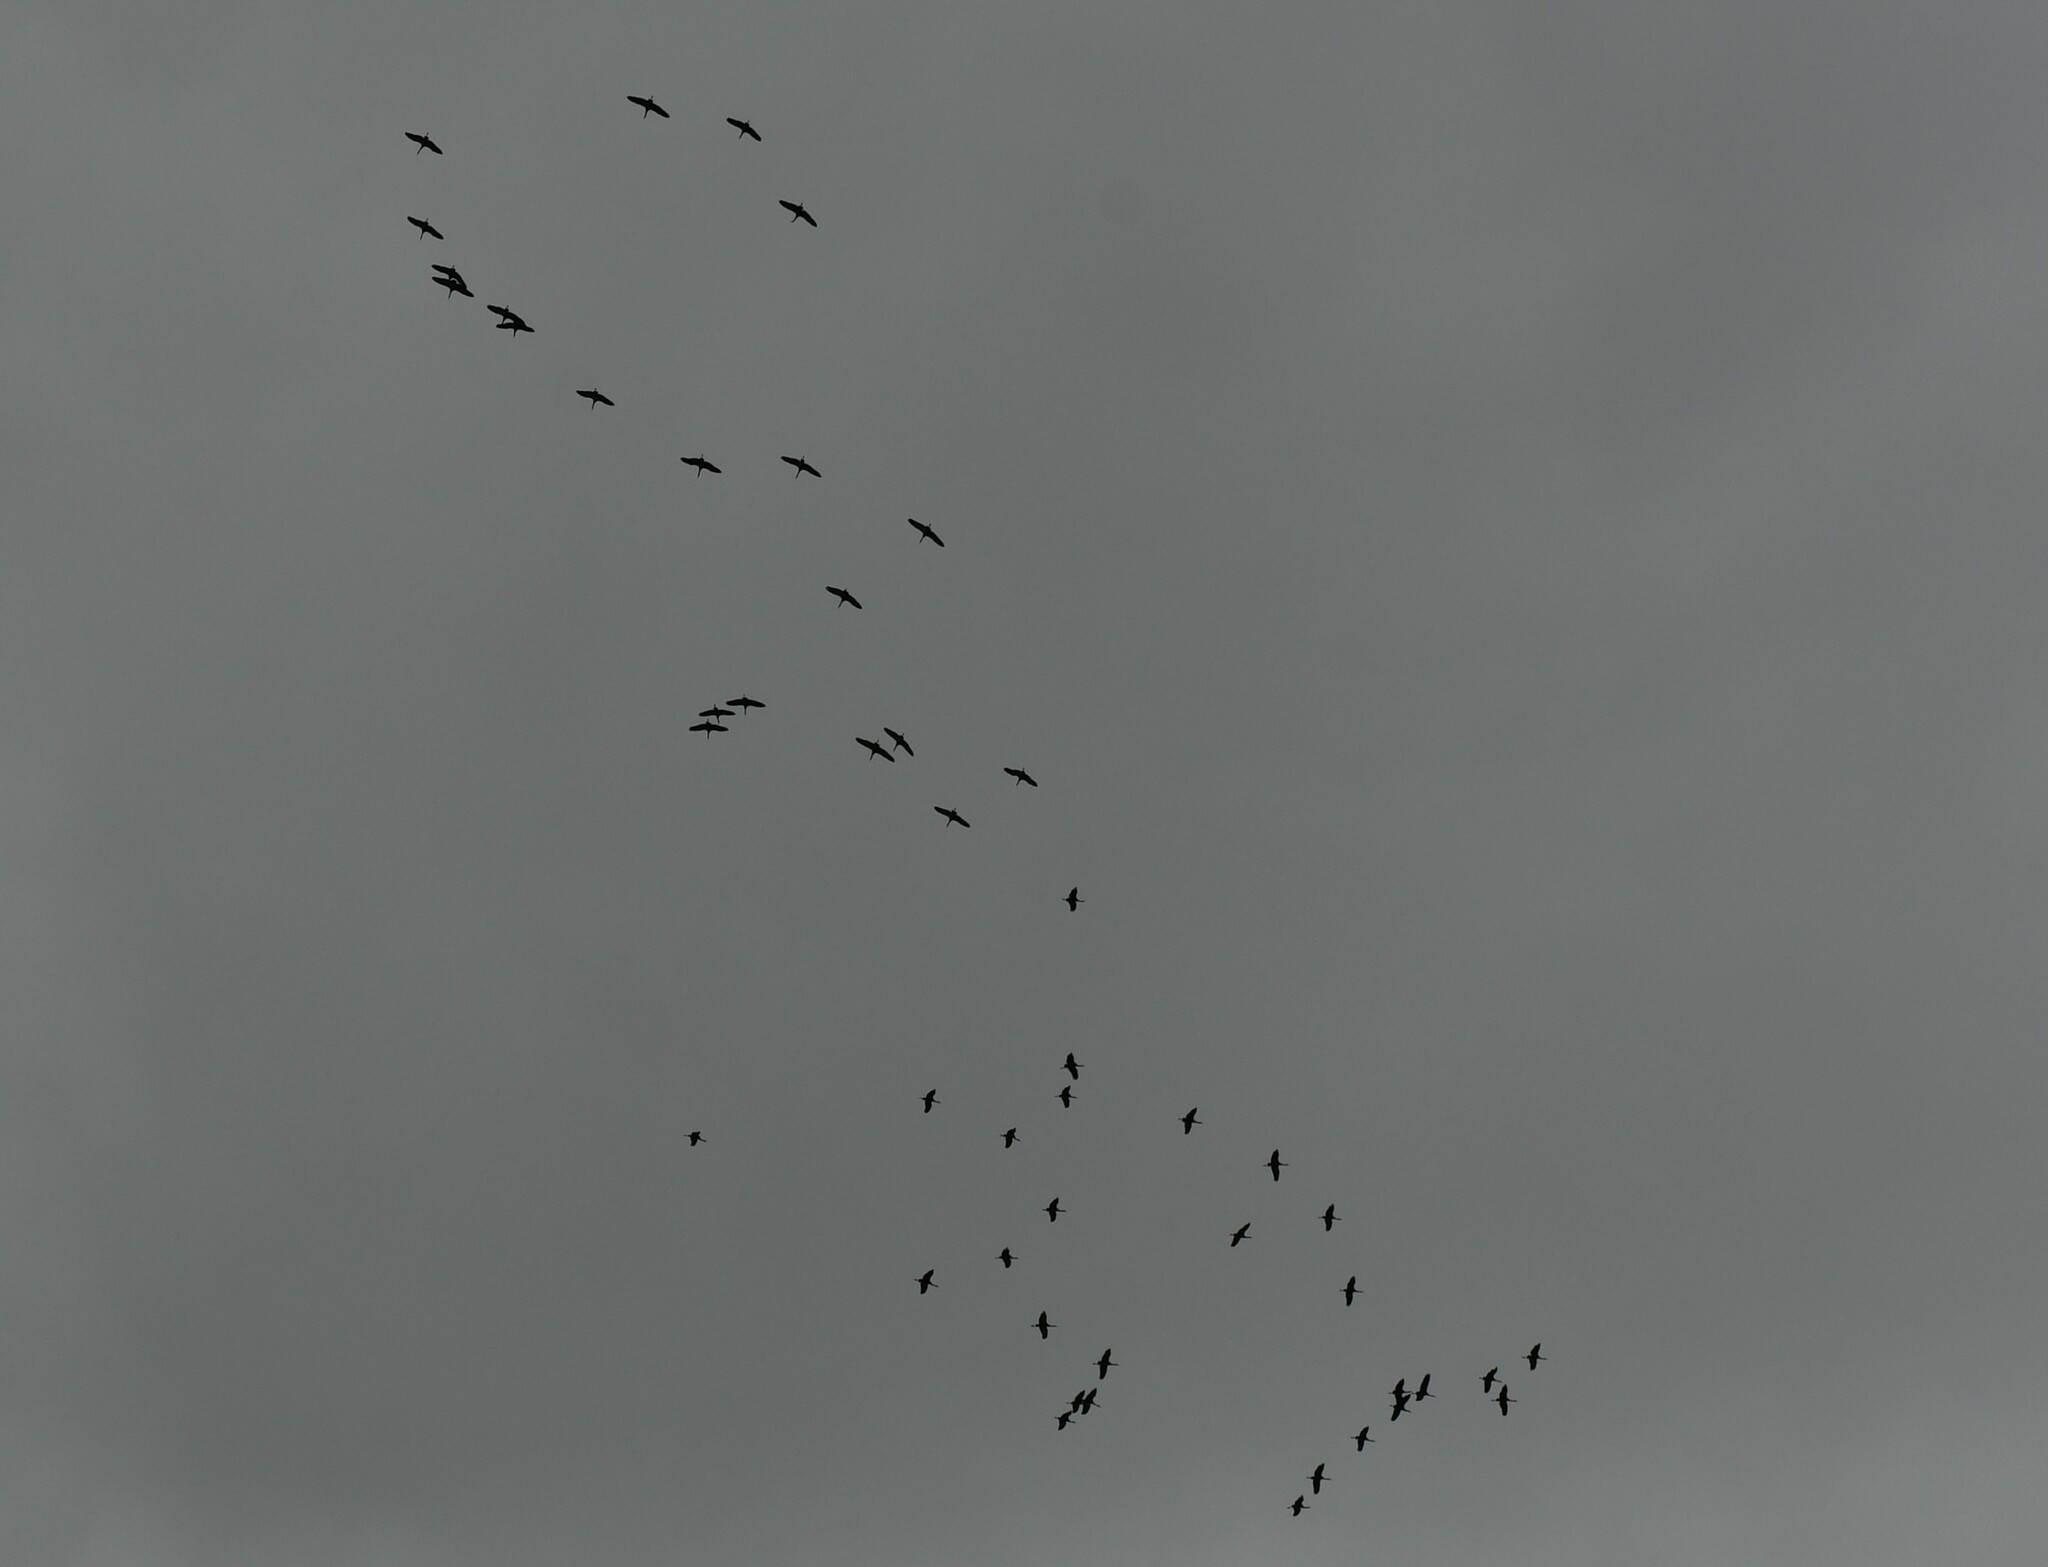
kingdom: Animalia
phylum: Chordata
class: Aves
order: Gruiformes
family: Gruidae
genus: Grus
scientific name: Grus canadensis
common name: Sandhill crane
